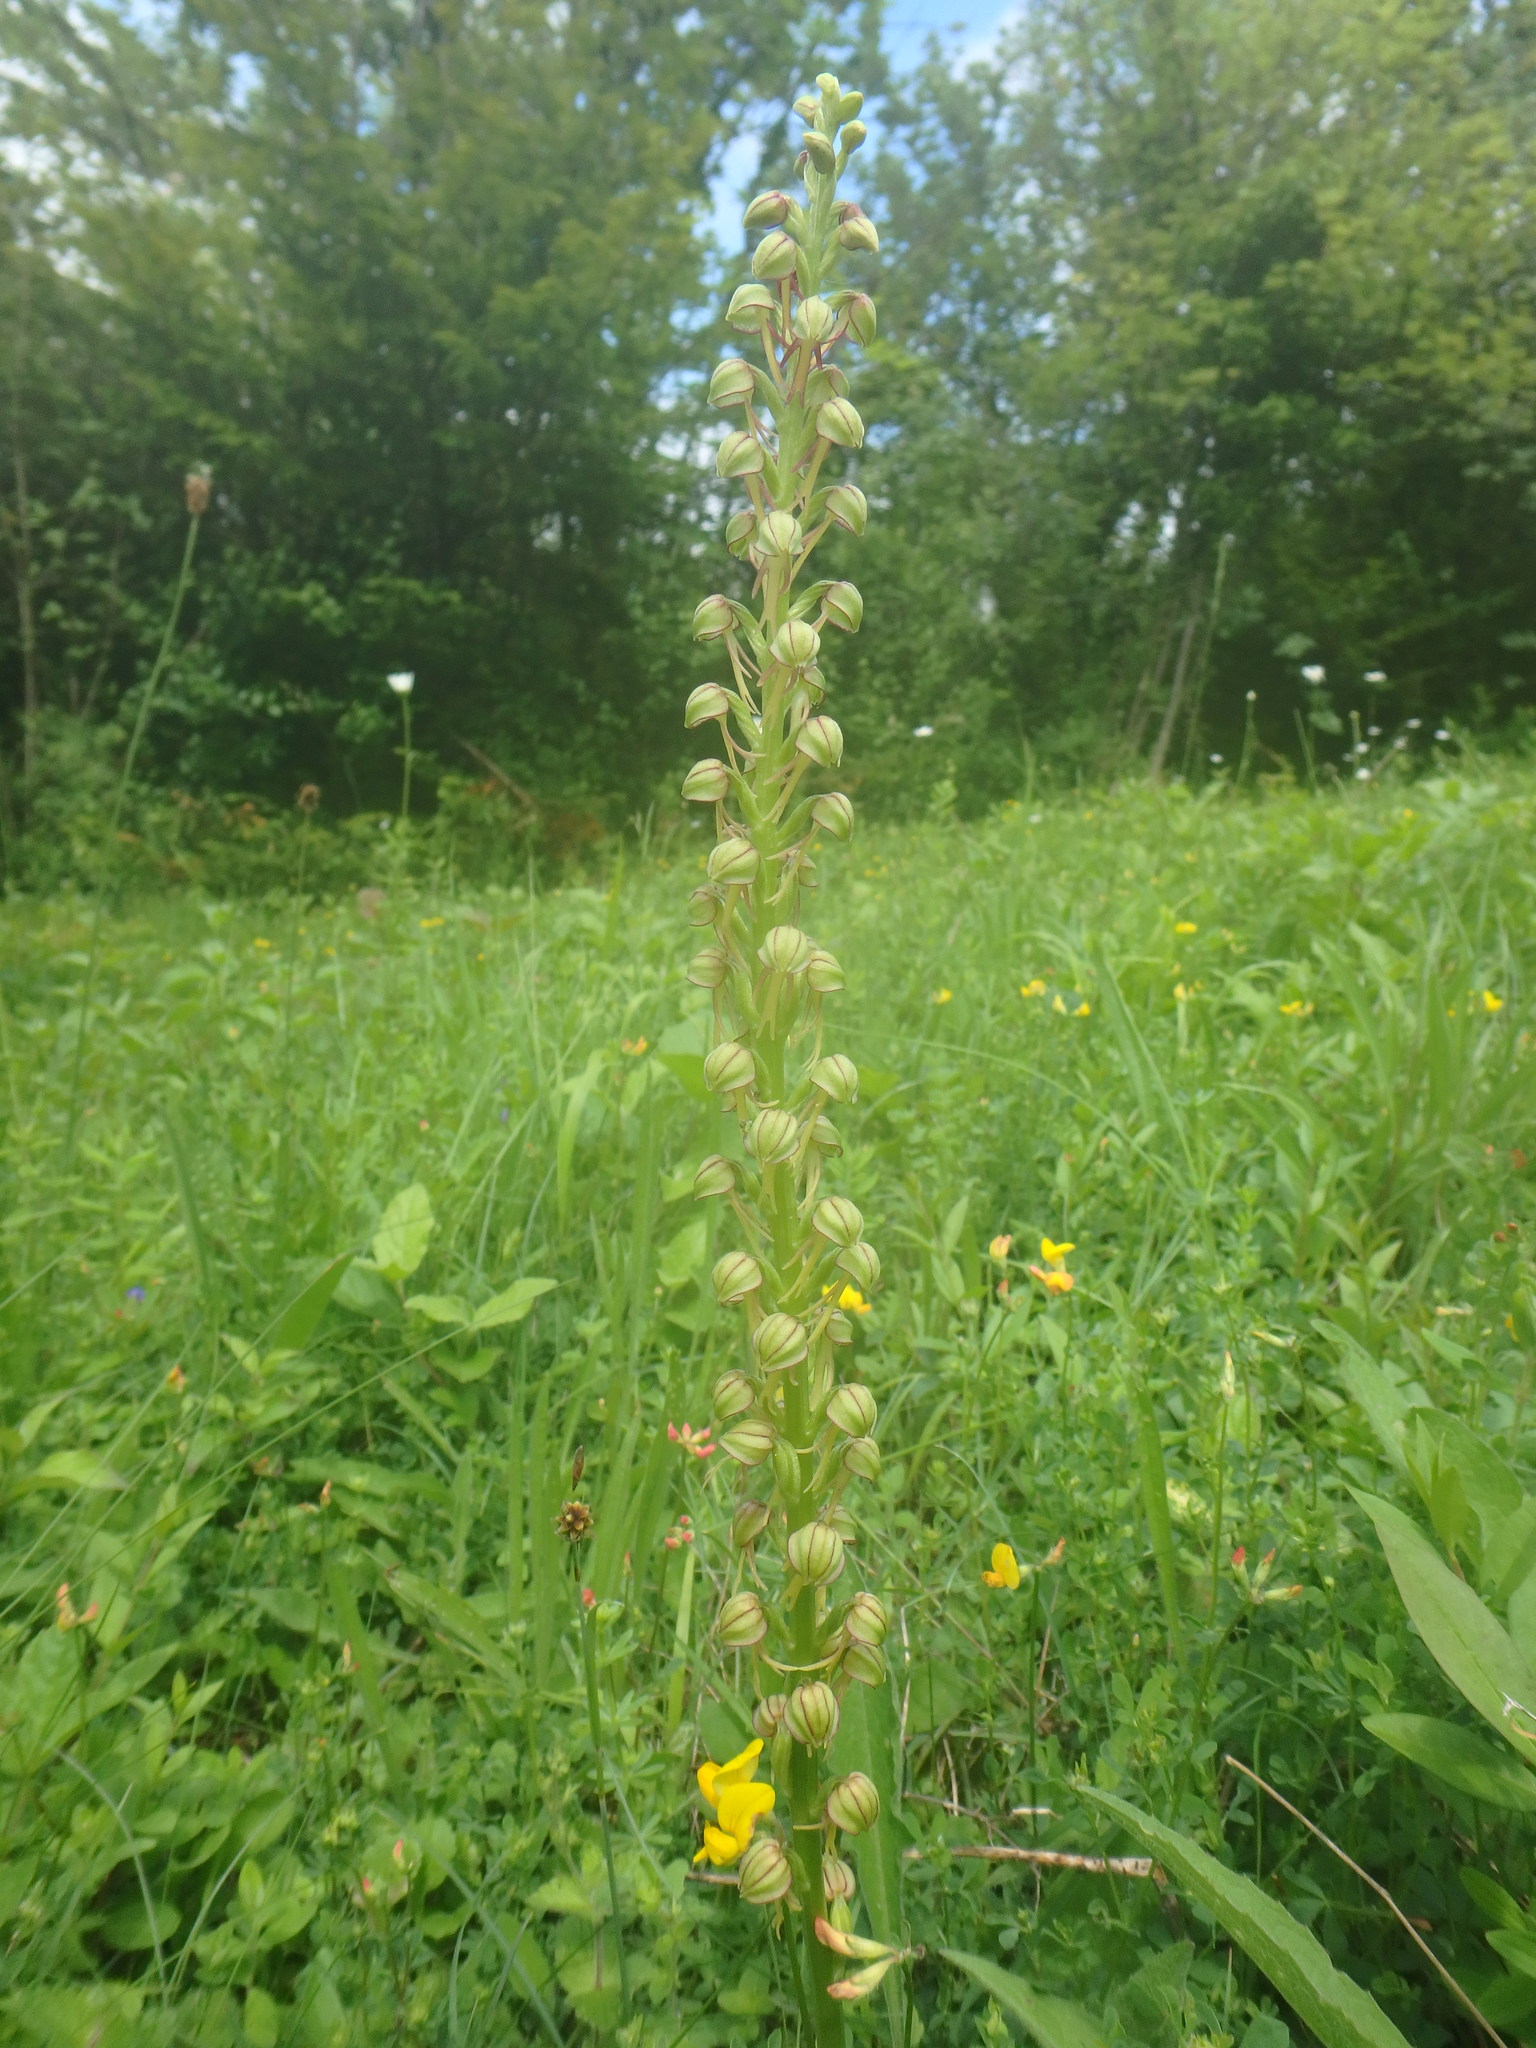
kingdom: Plantae
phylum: Tracheophyta
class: Liliopsida
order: Asparagales
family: Orchidaceae
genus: Orchis
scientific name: Orchis anthropophora
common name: Man orchid
